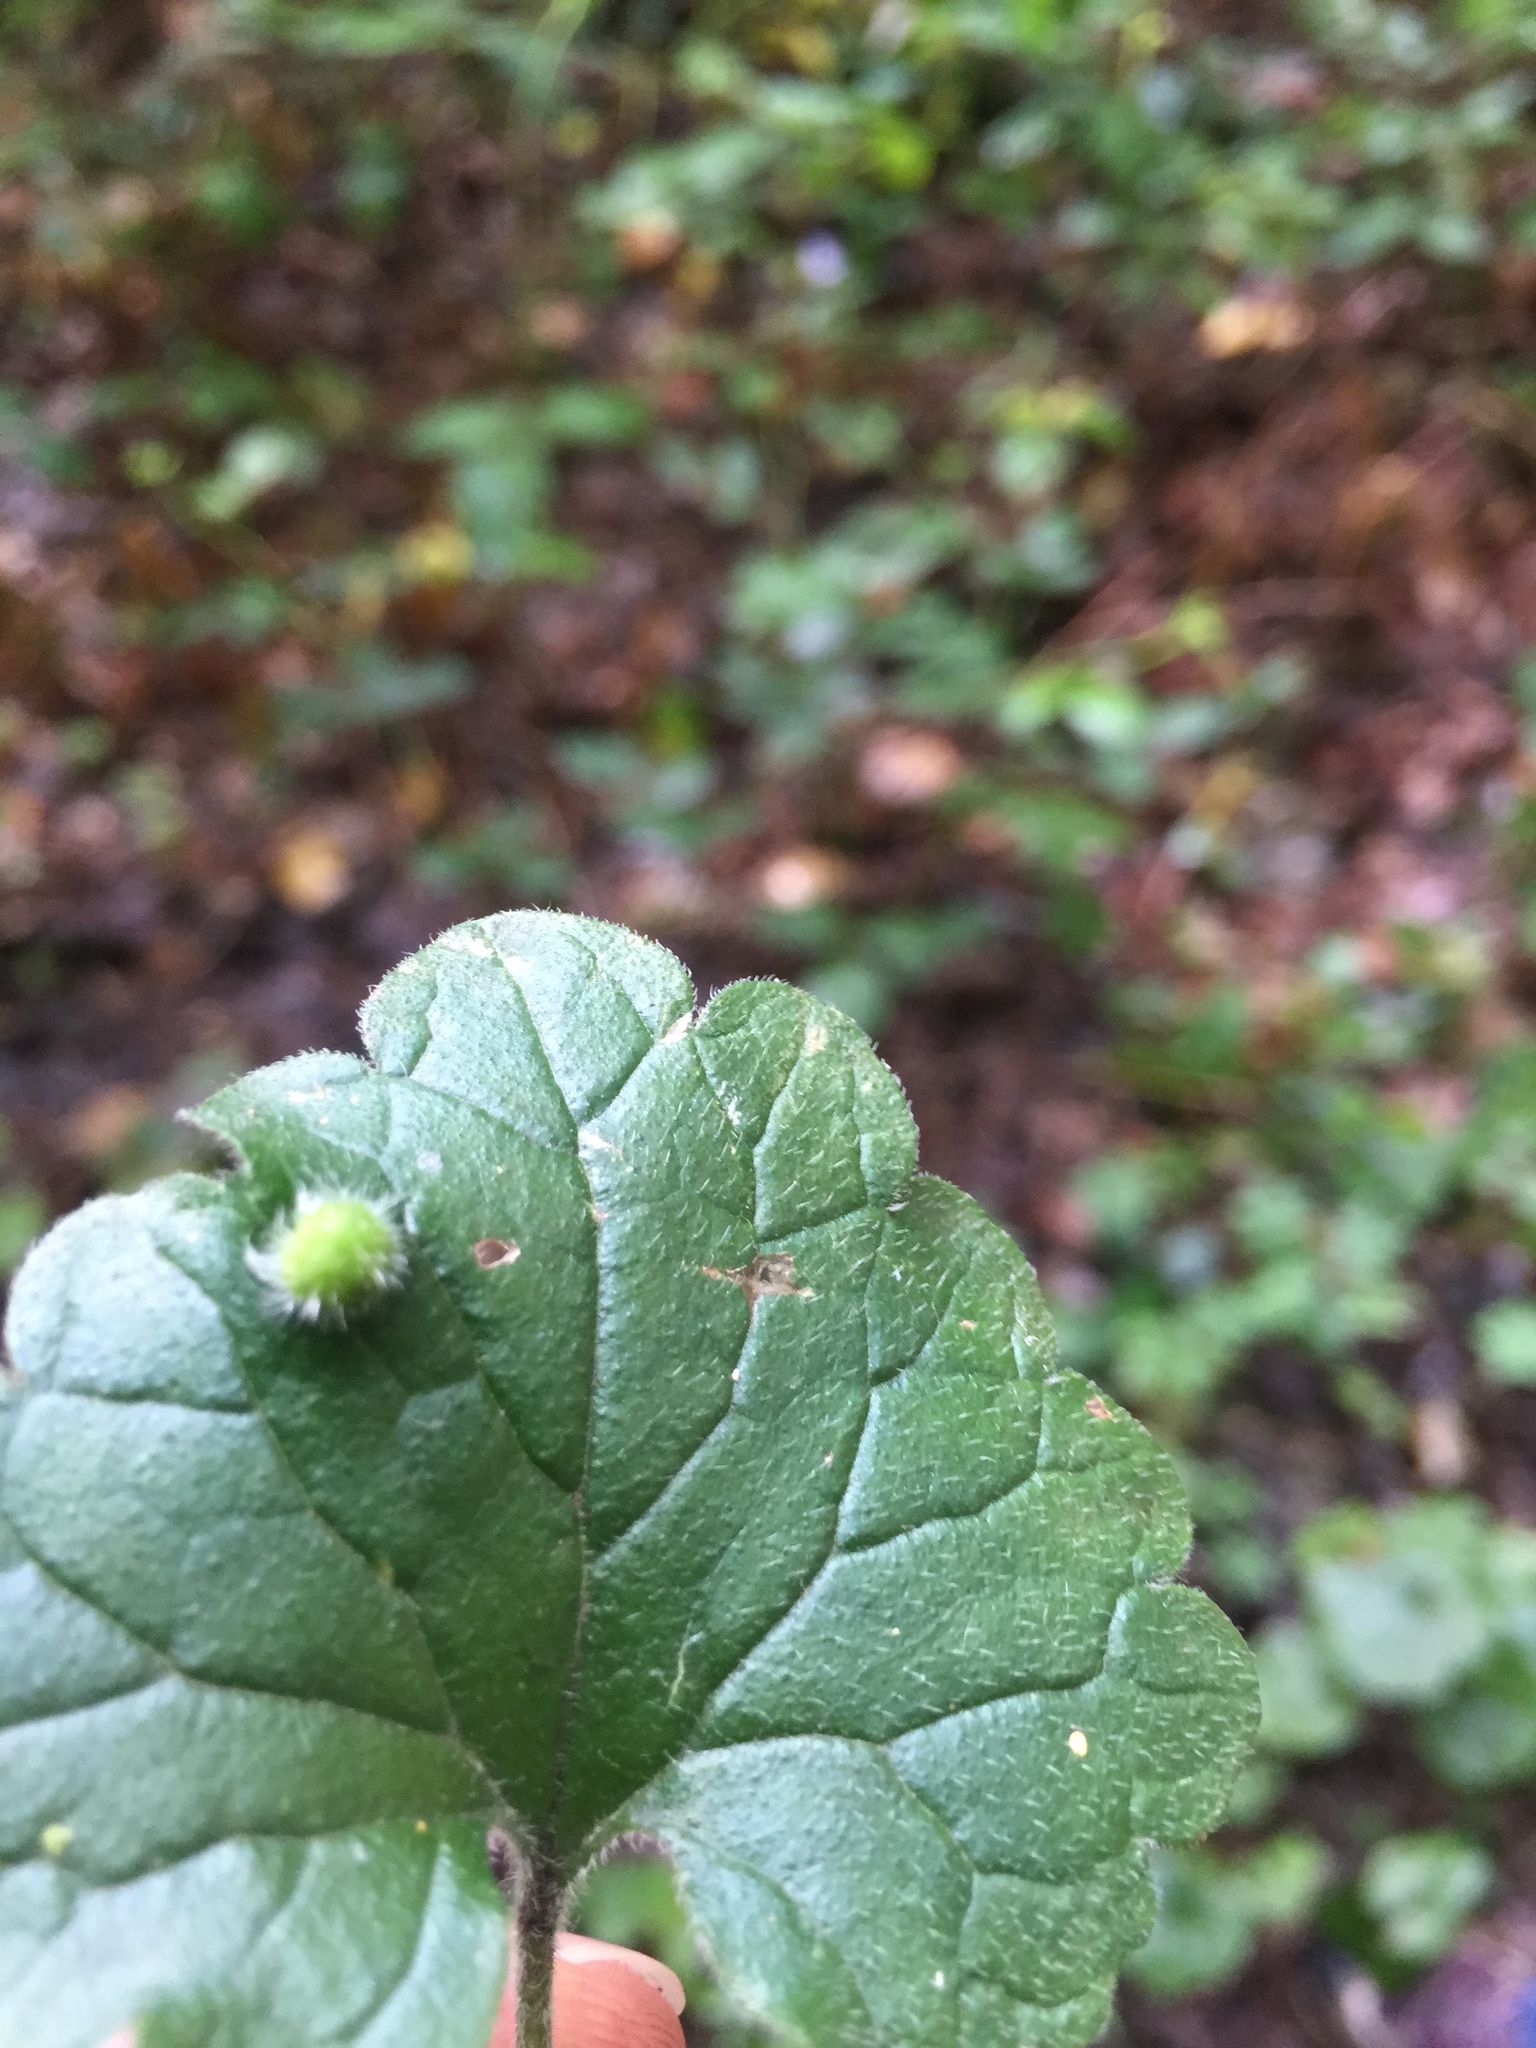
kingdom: Animalia
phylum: Arthropoda
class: Insecta
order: Diptera
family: Cecidomyiidae
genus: Rondaniola
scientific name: Rondaniola bursaria
